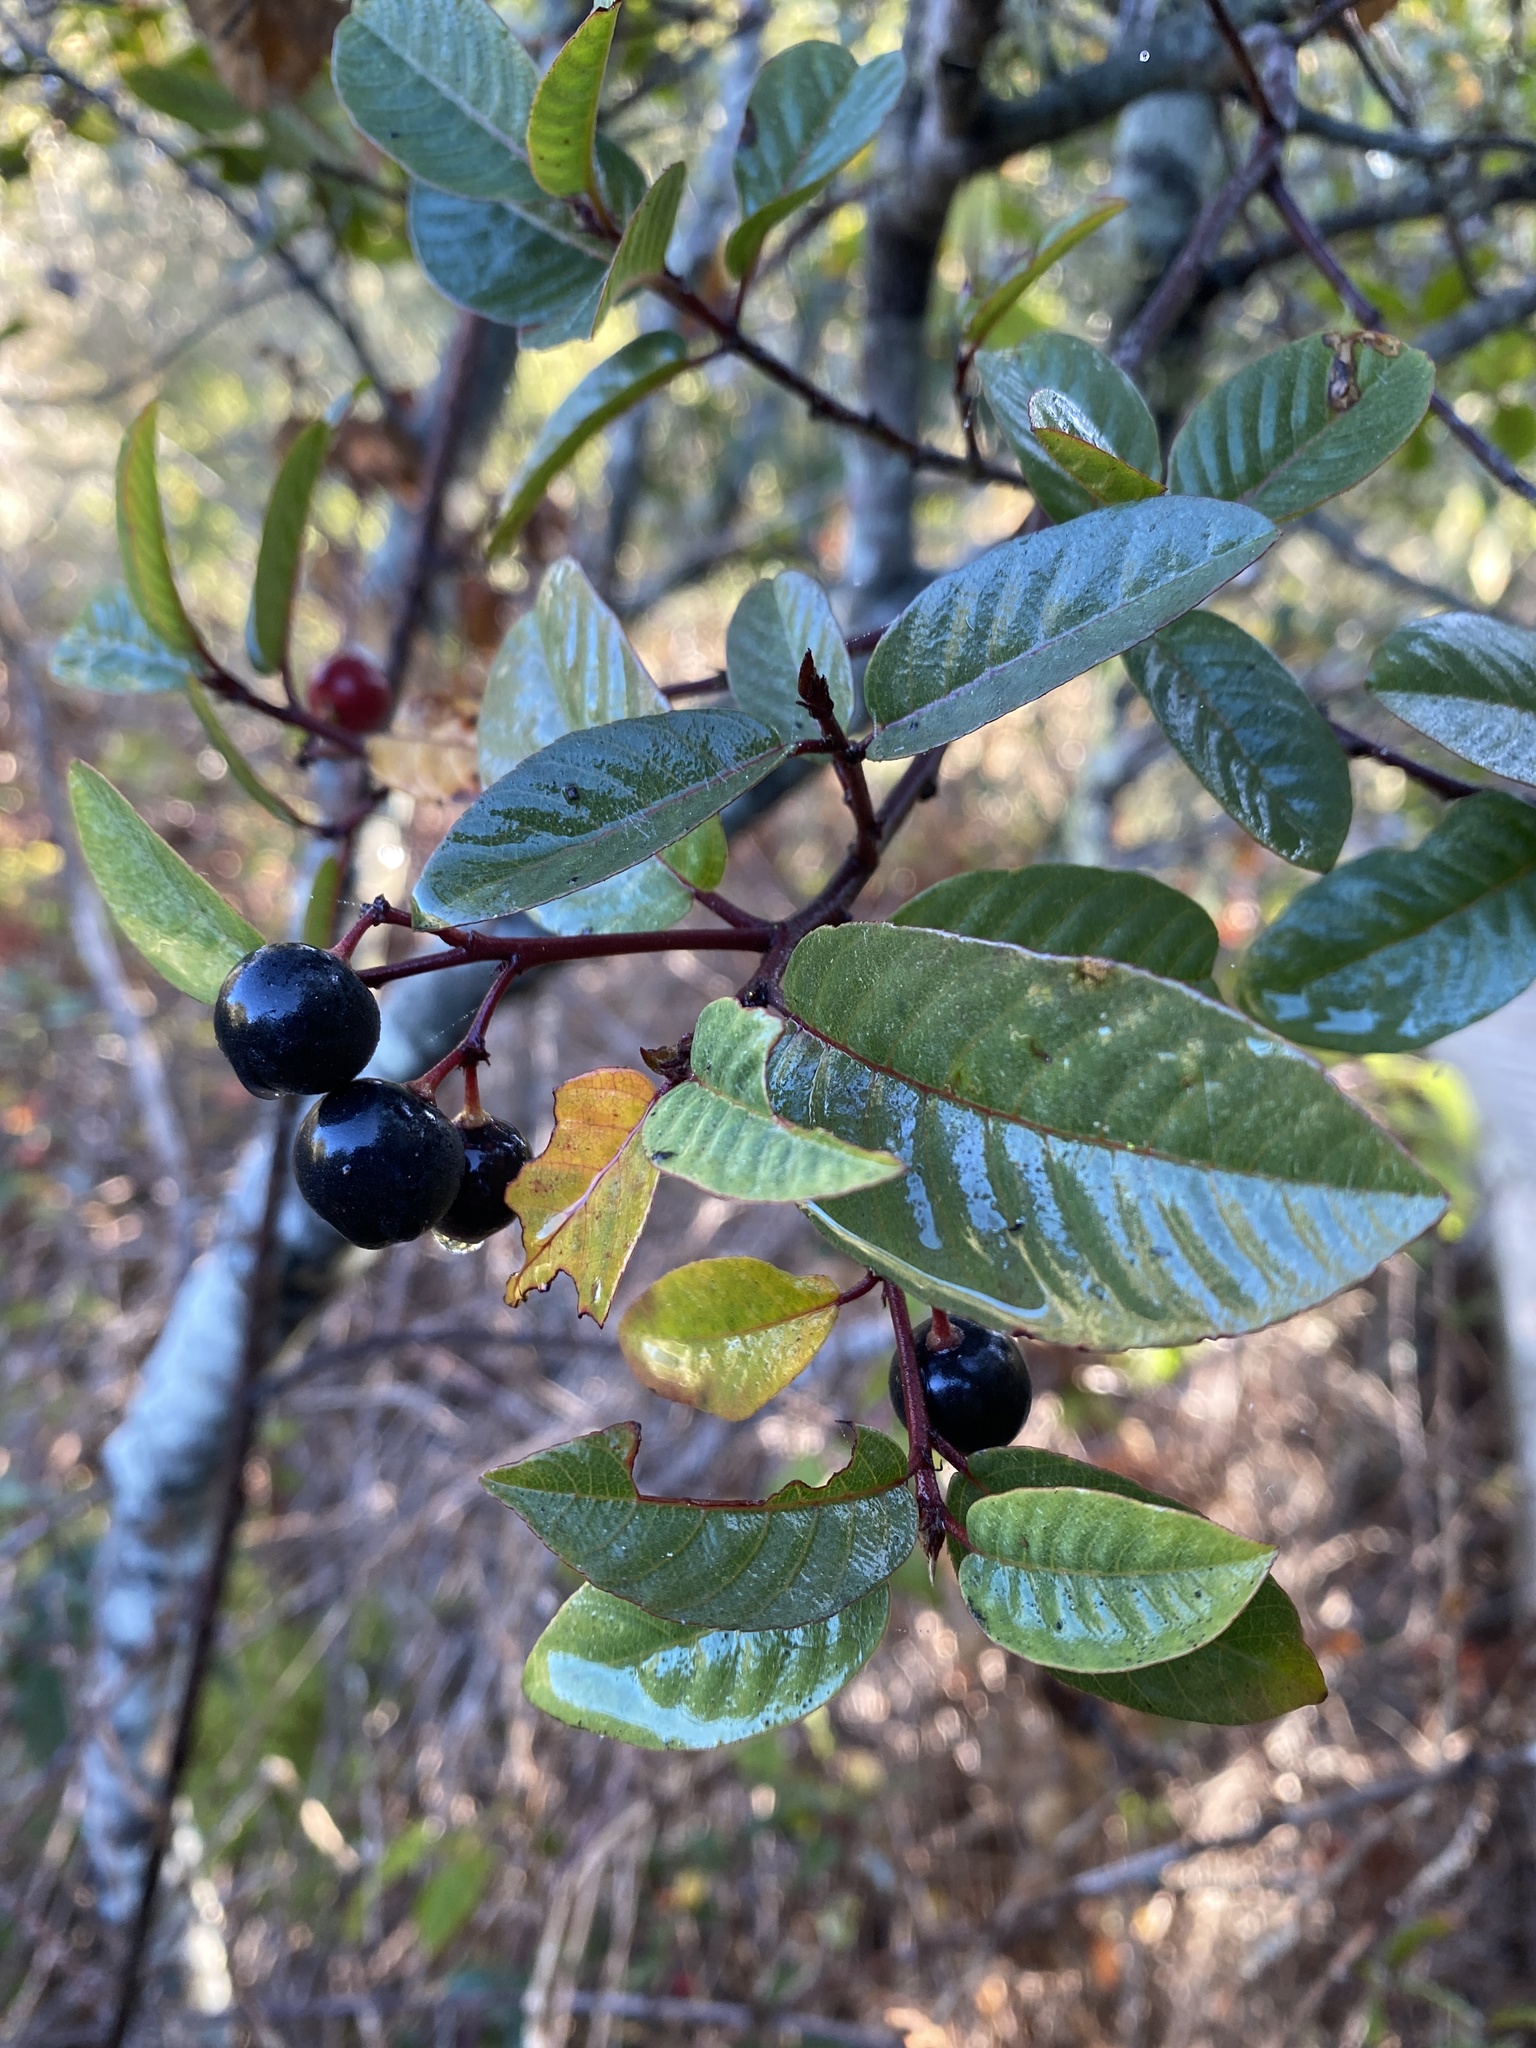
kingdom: Plantae
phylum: Tracheophyta
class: Magnoliopsida
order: Rosales
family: Rhamnaceae
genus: Frangula
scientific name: Frangula californica
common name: California buckthorn
